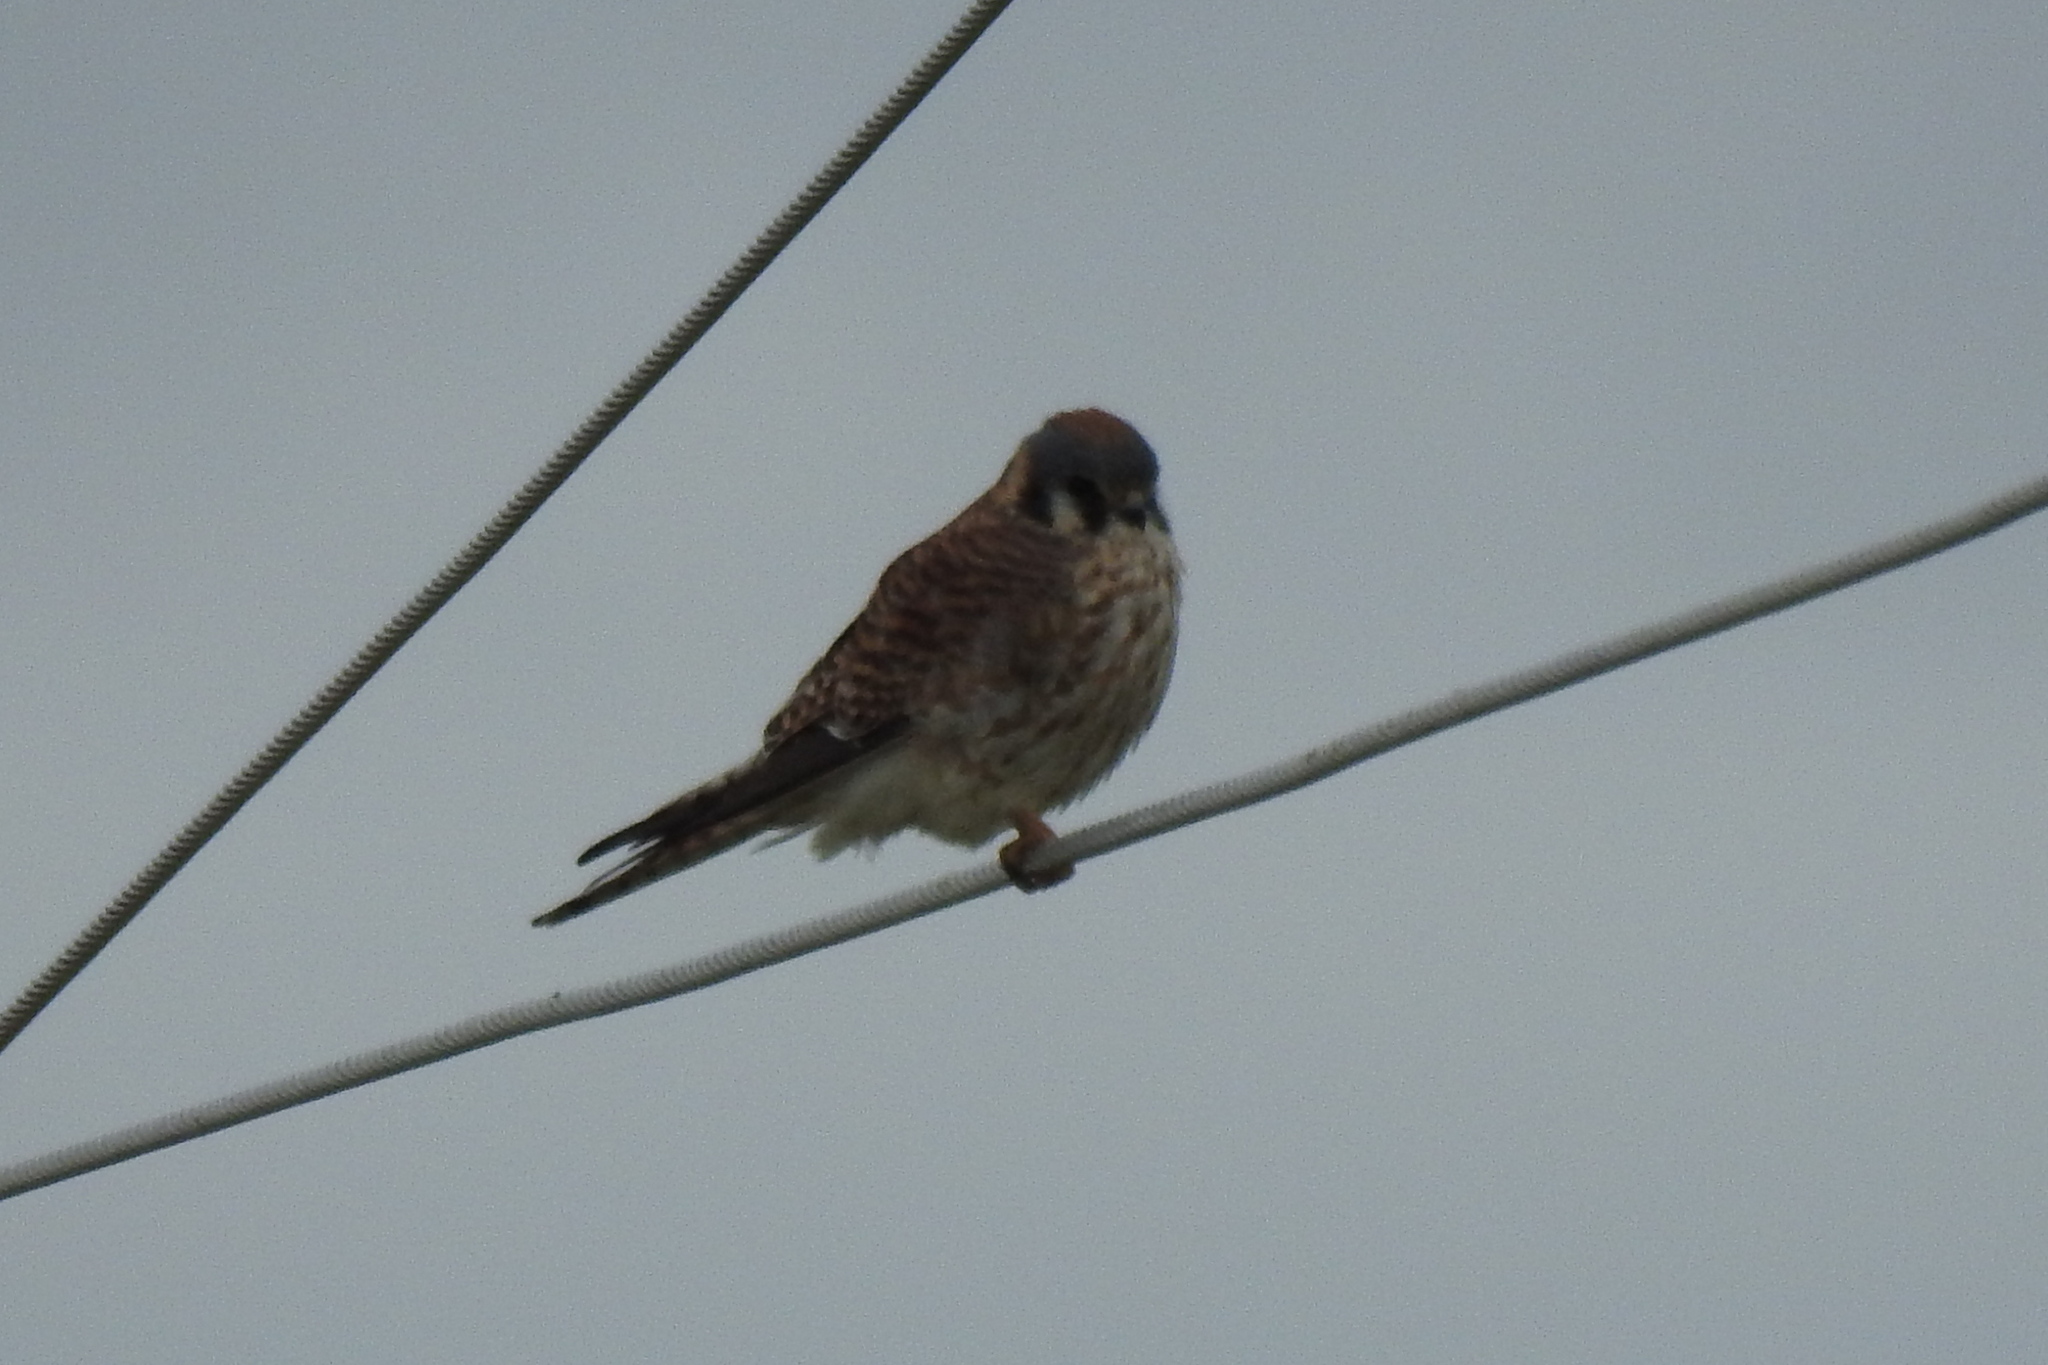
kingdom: Animalia
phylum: Chordata
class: Aves
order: Falconiformes
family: Falconidae
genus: Falco
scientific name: Falco sparverius
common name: American kestrel
